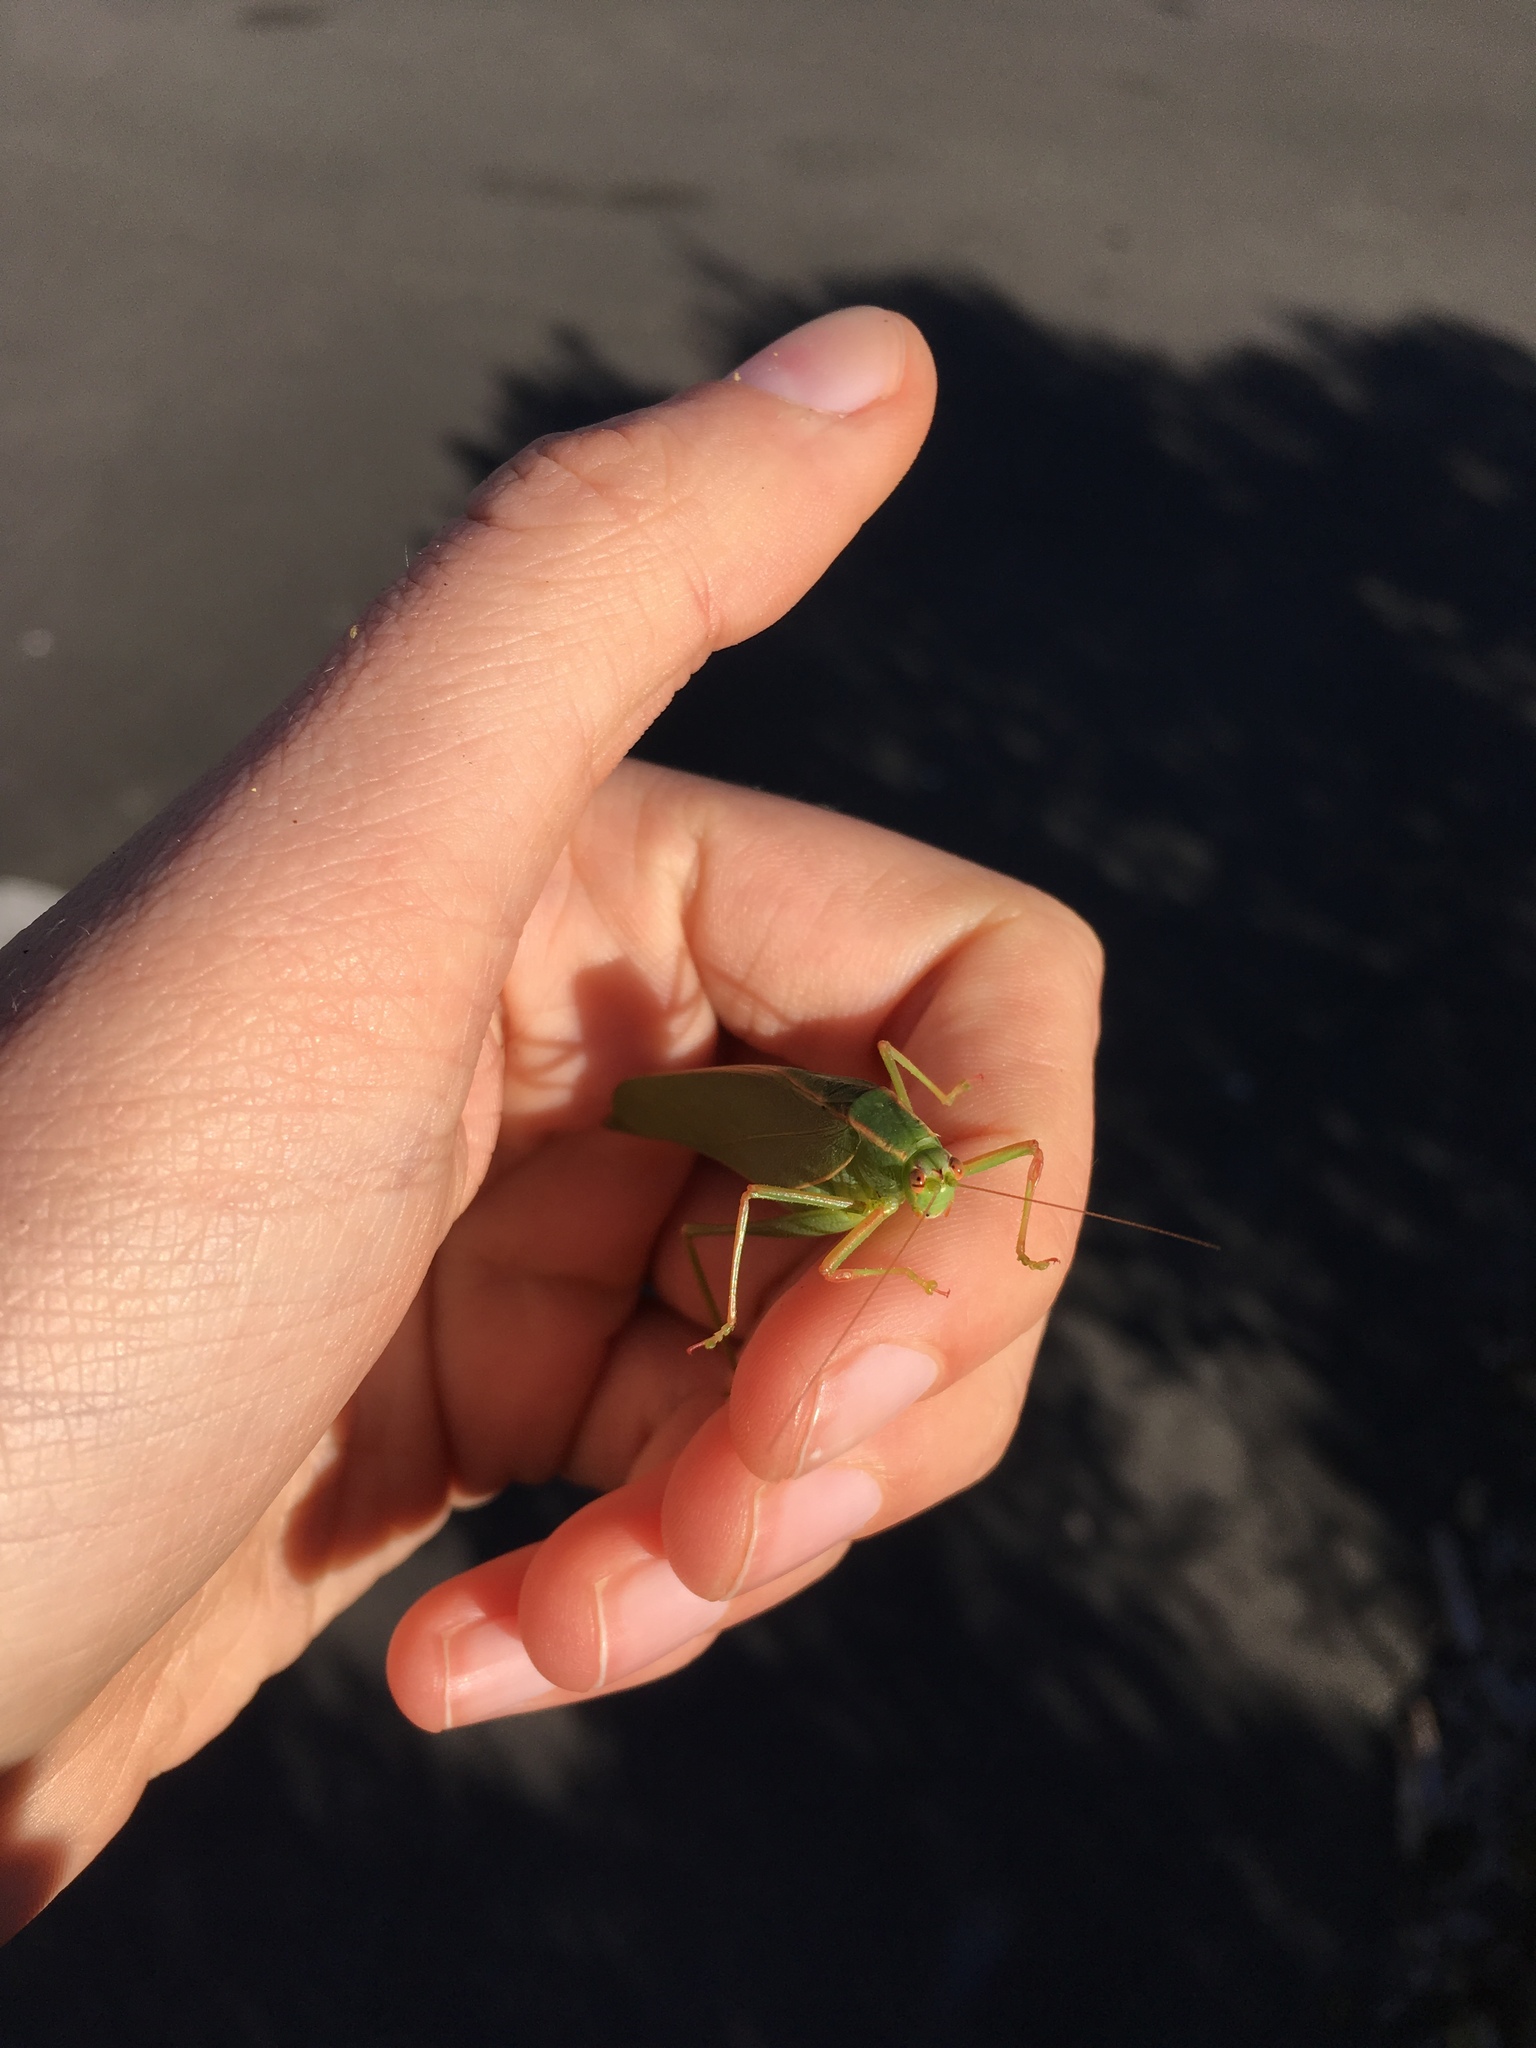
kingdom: Animalia
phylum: Arthropoda
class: Insecta
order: Orthoptera
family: Tettigoniidae
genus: Caedicia
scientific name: Caedicia simplex
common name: Common garden katydid
